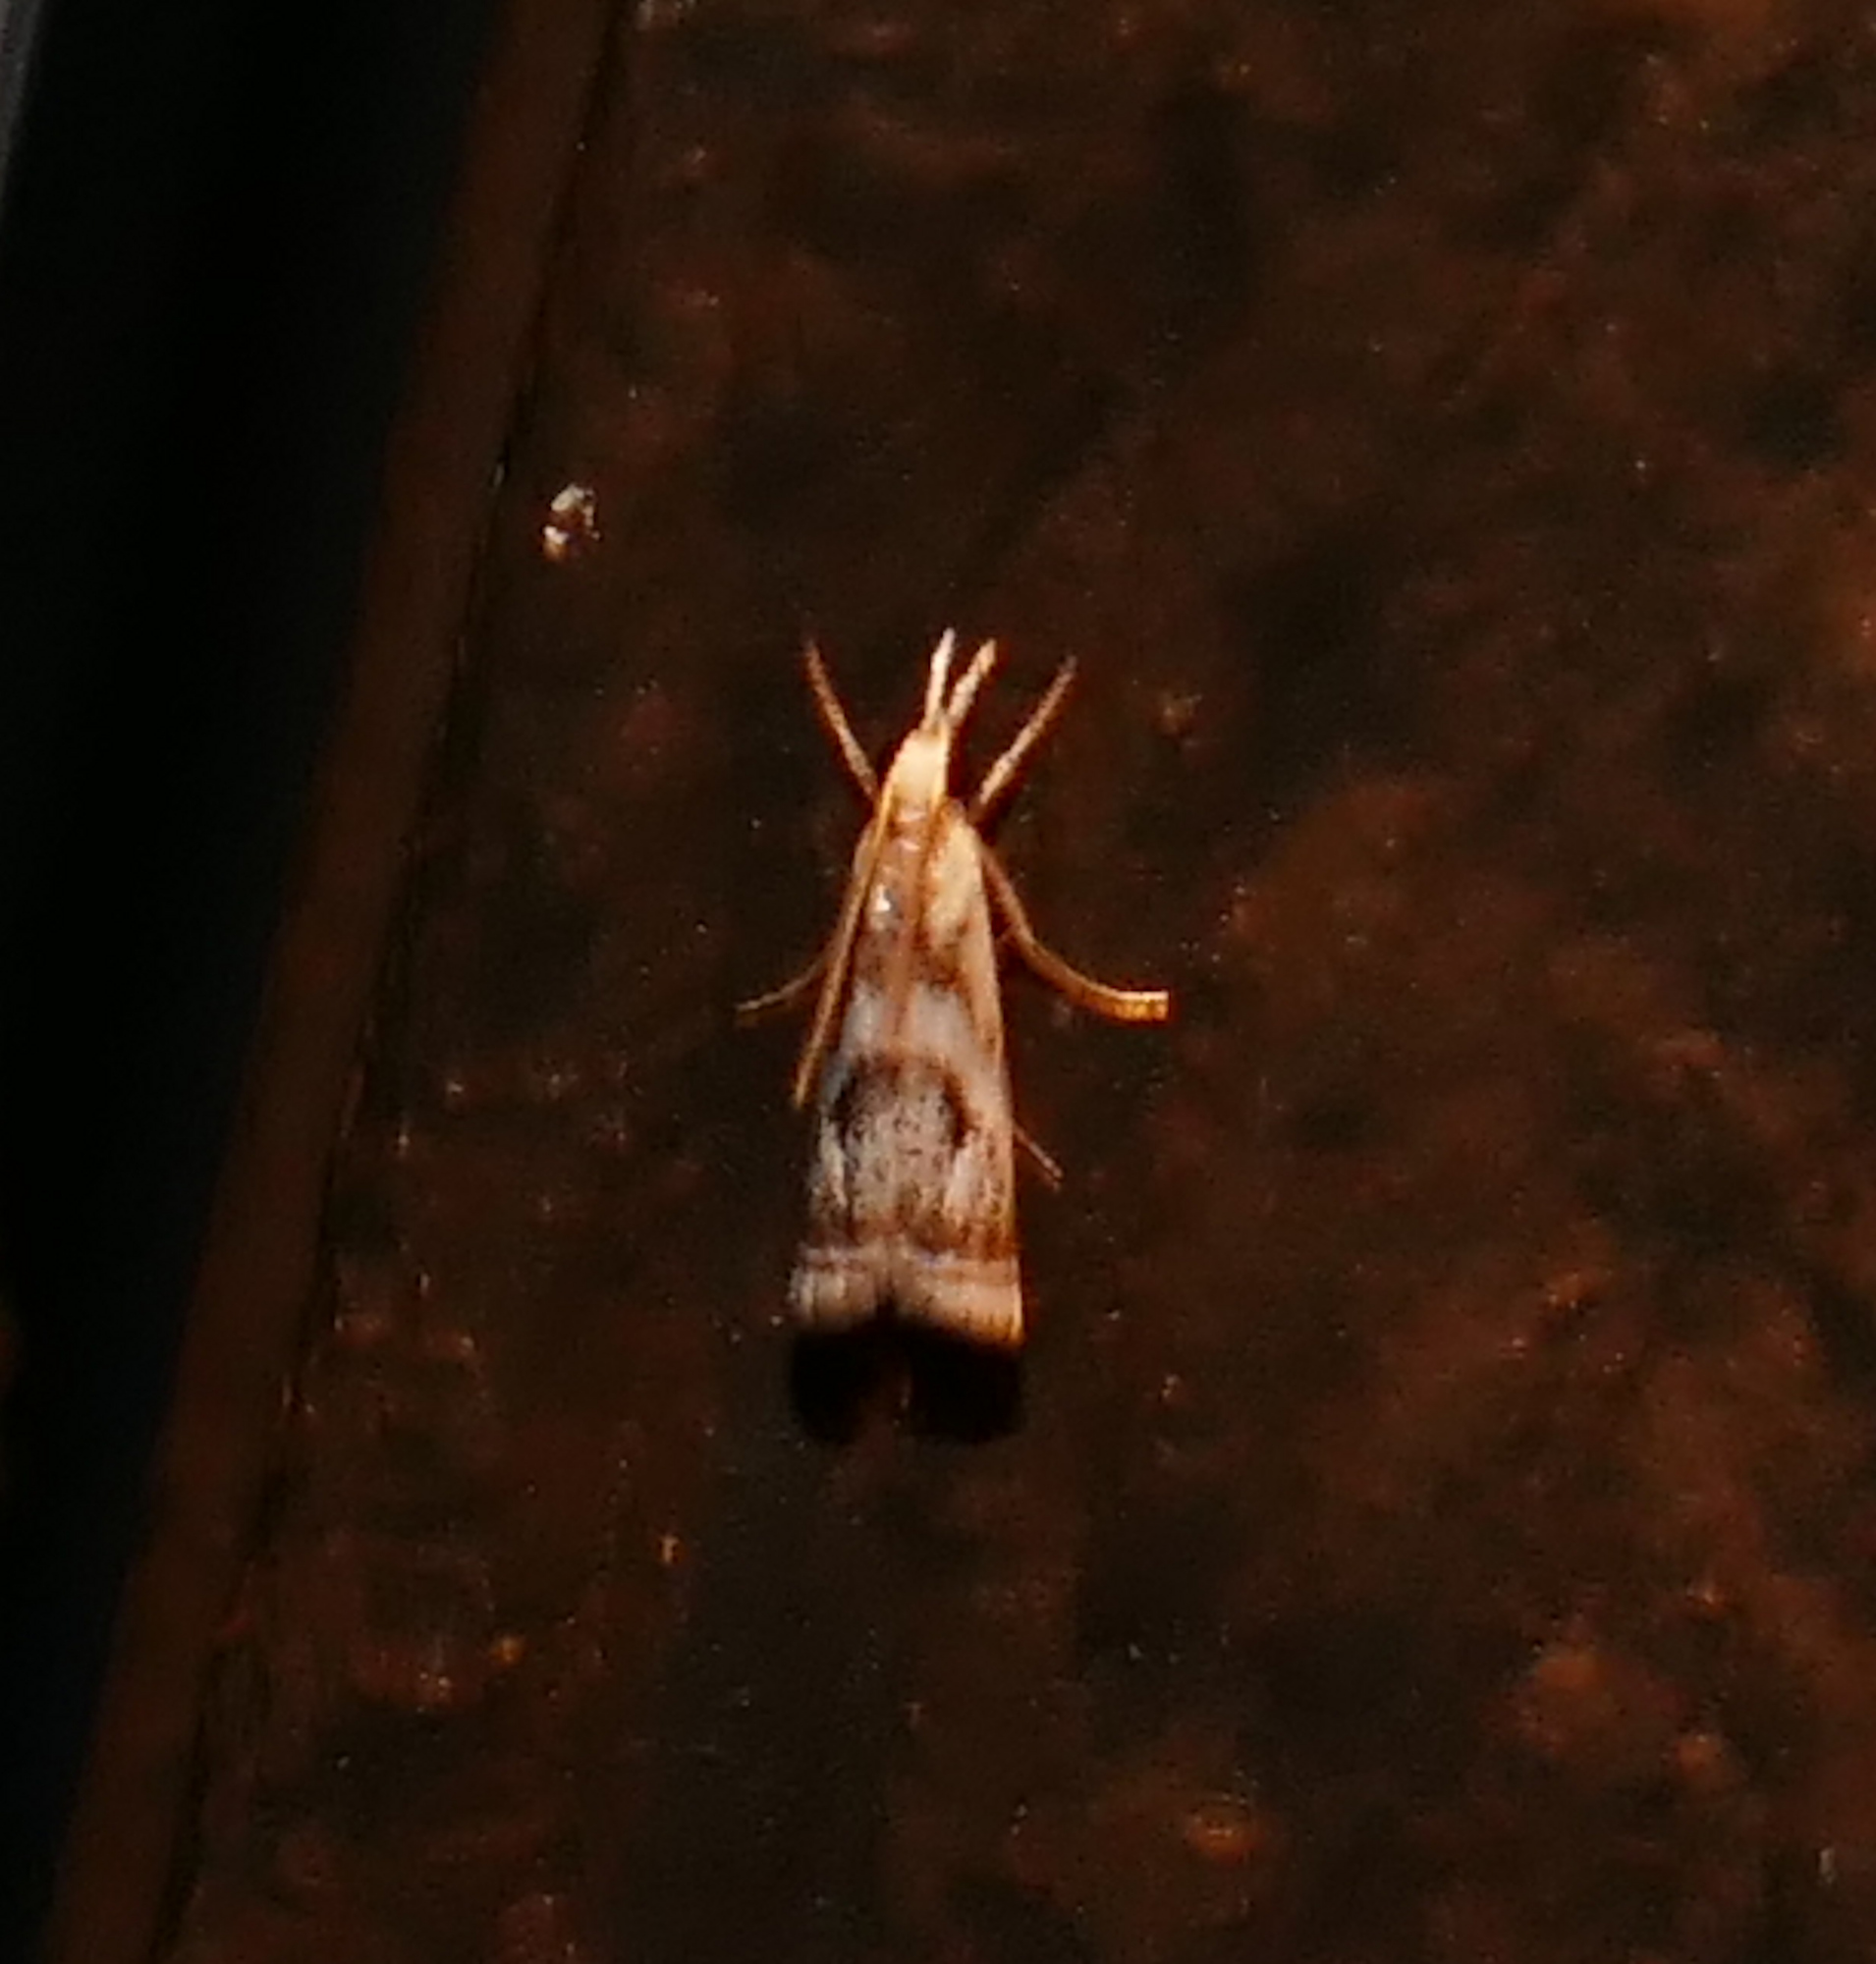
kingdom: Animalia
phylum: Arthropoda
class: Insecta
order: Lepidoptera
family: Crambidae
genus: Microcrambus
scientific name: Microcrambus elegans
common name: Elegant grass-veneer
